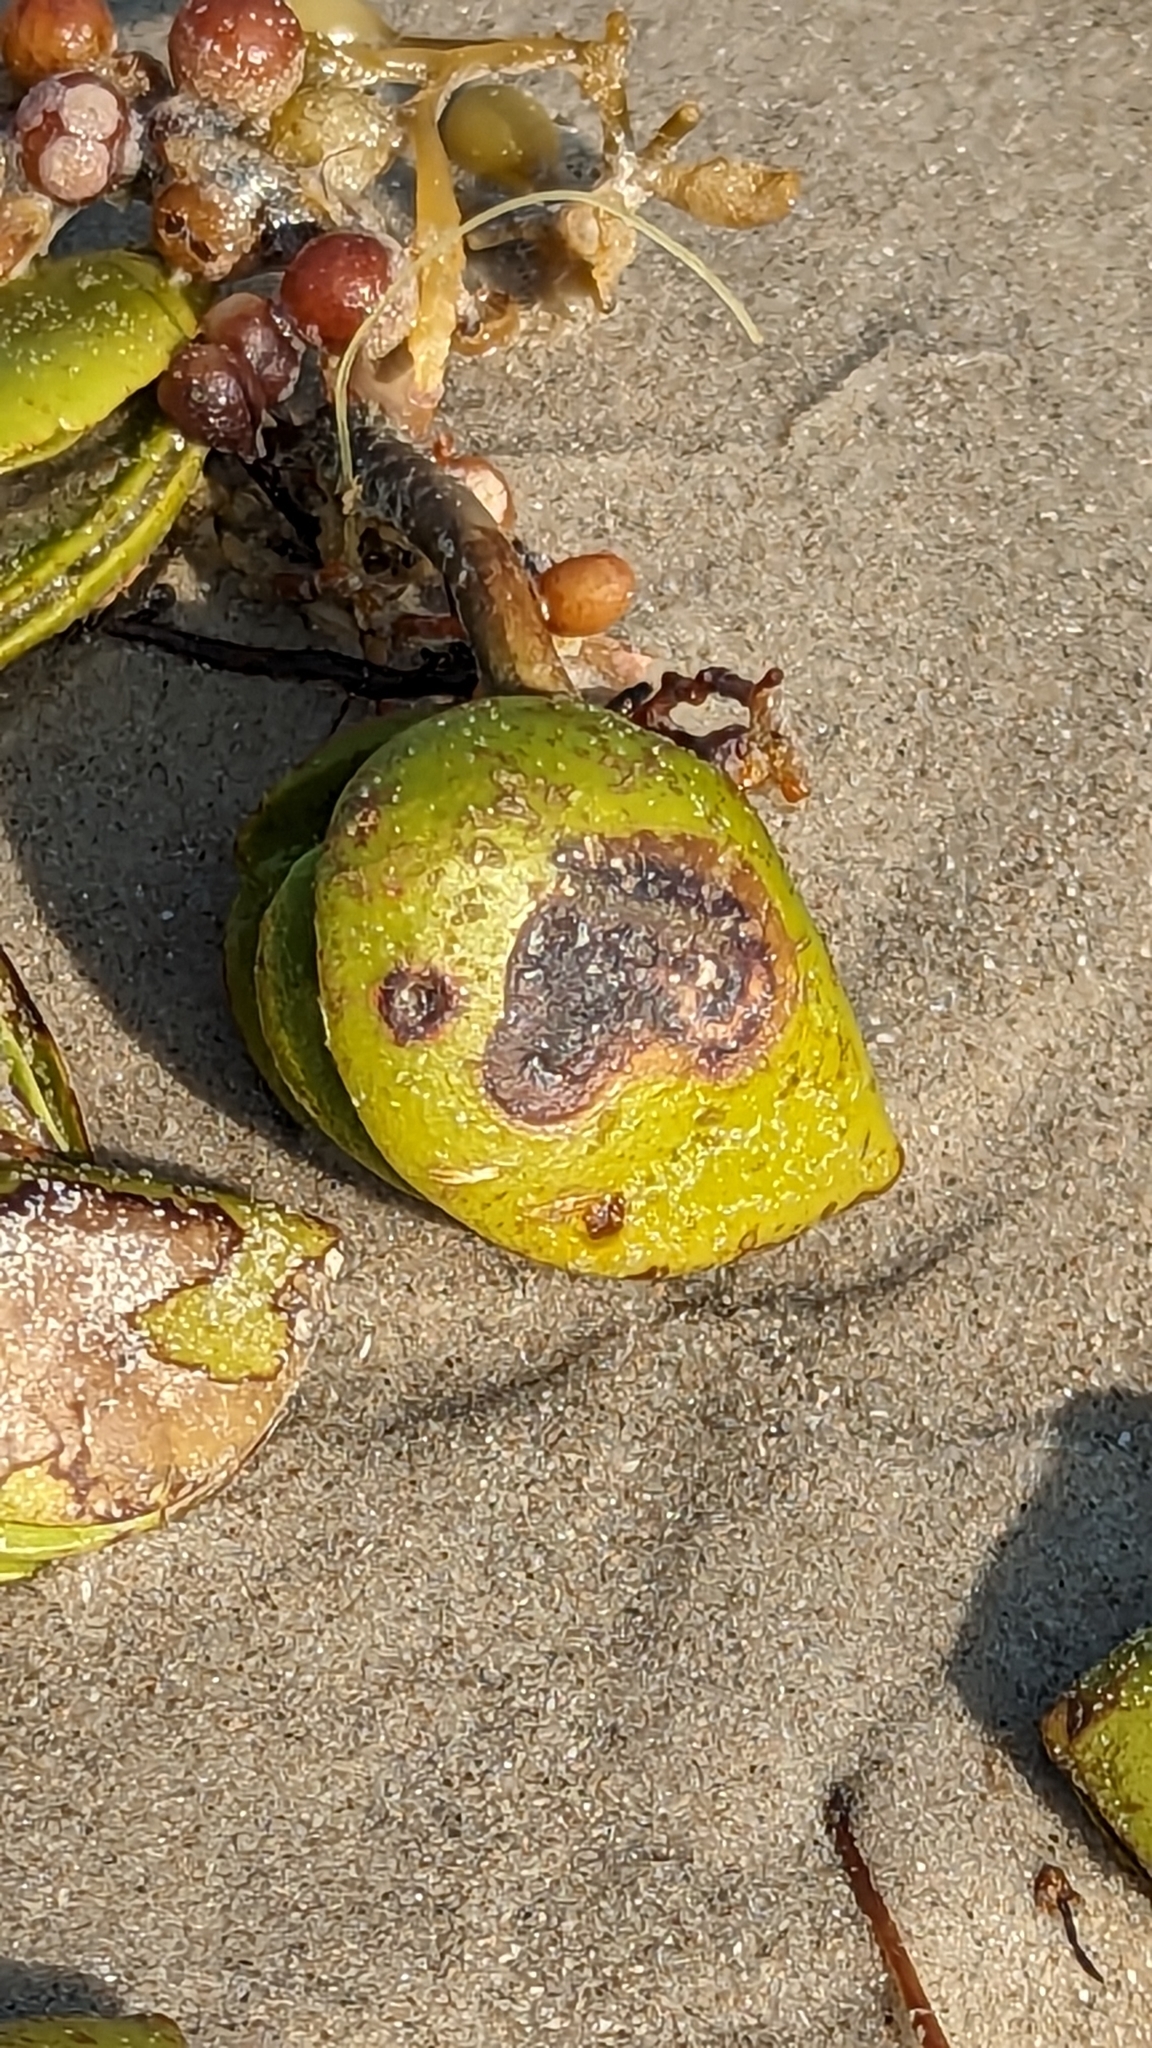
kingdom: Plantae
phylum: Tracheophyta
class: Magnoliopsida
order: Lamiales
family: Acanthaceae
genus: Avicennia
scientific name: Avicennia germinans
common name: Black mangrove
